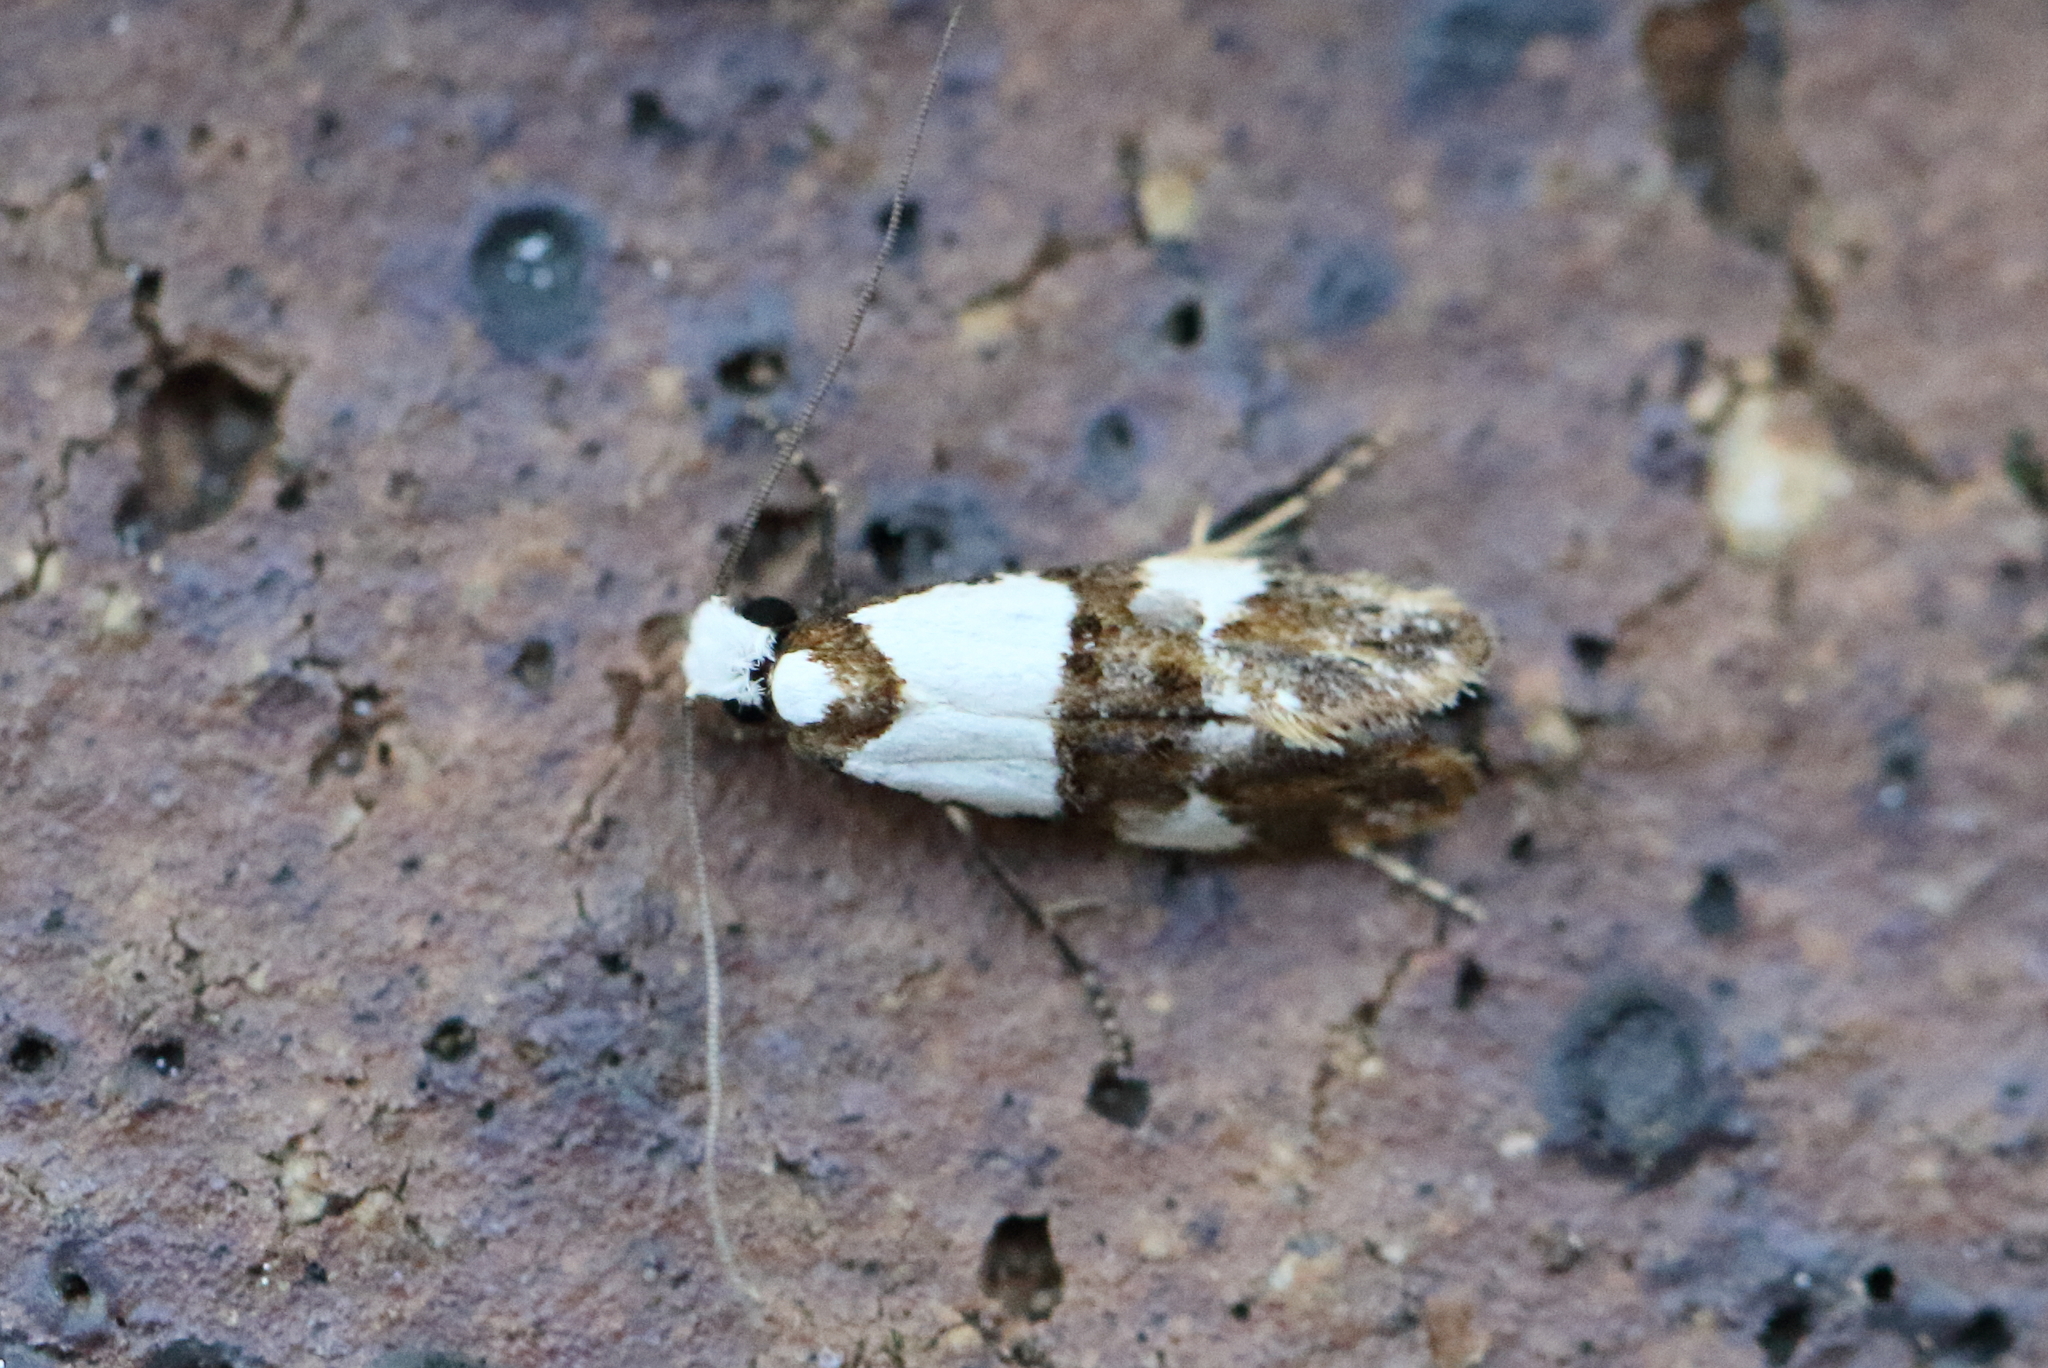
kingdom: Animalia
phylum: Arthropoda
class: Insecta
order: Lepidoptera
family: Tineidae
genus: Monopis
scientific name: Monopis meliorella
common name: Blotched monopis moth
